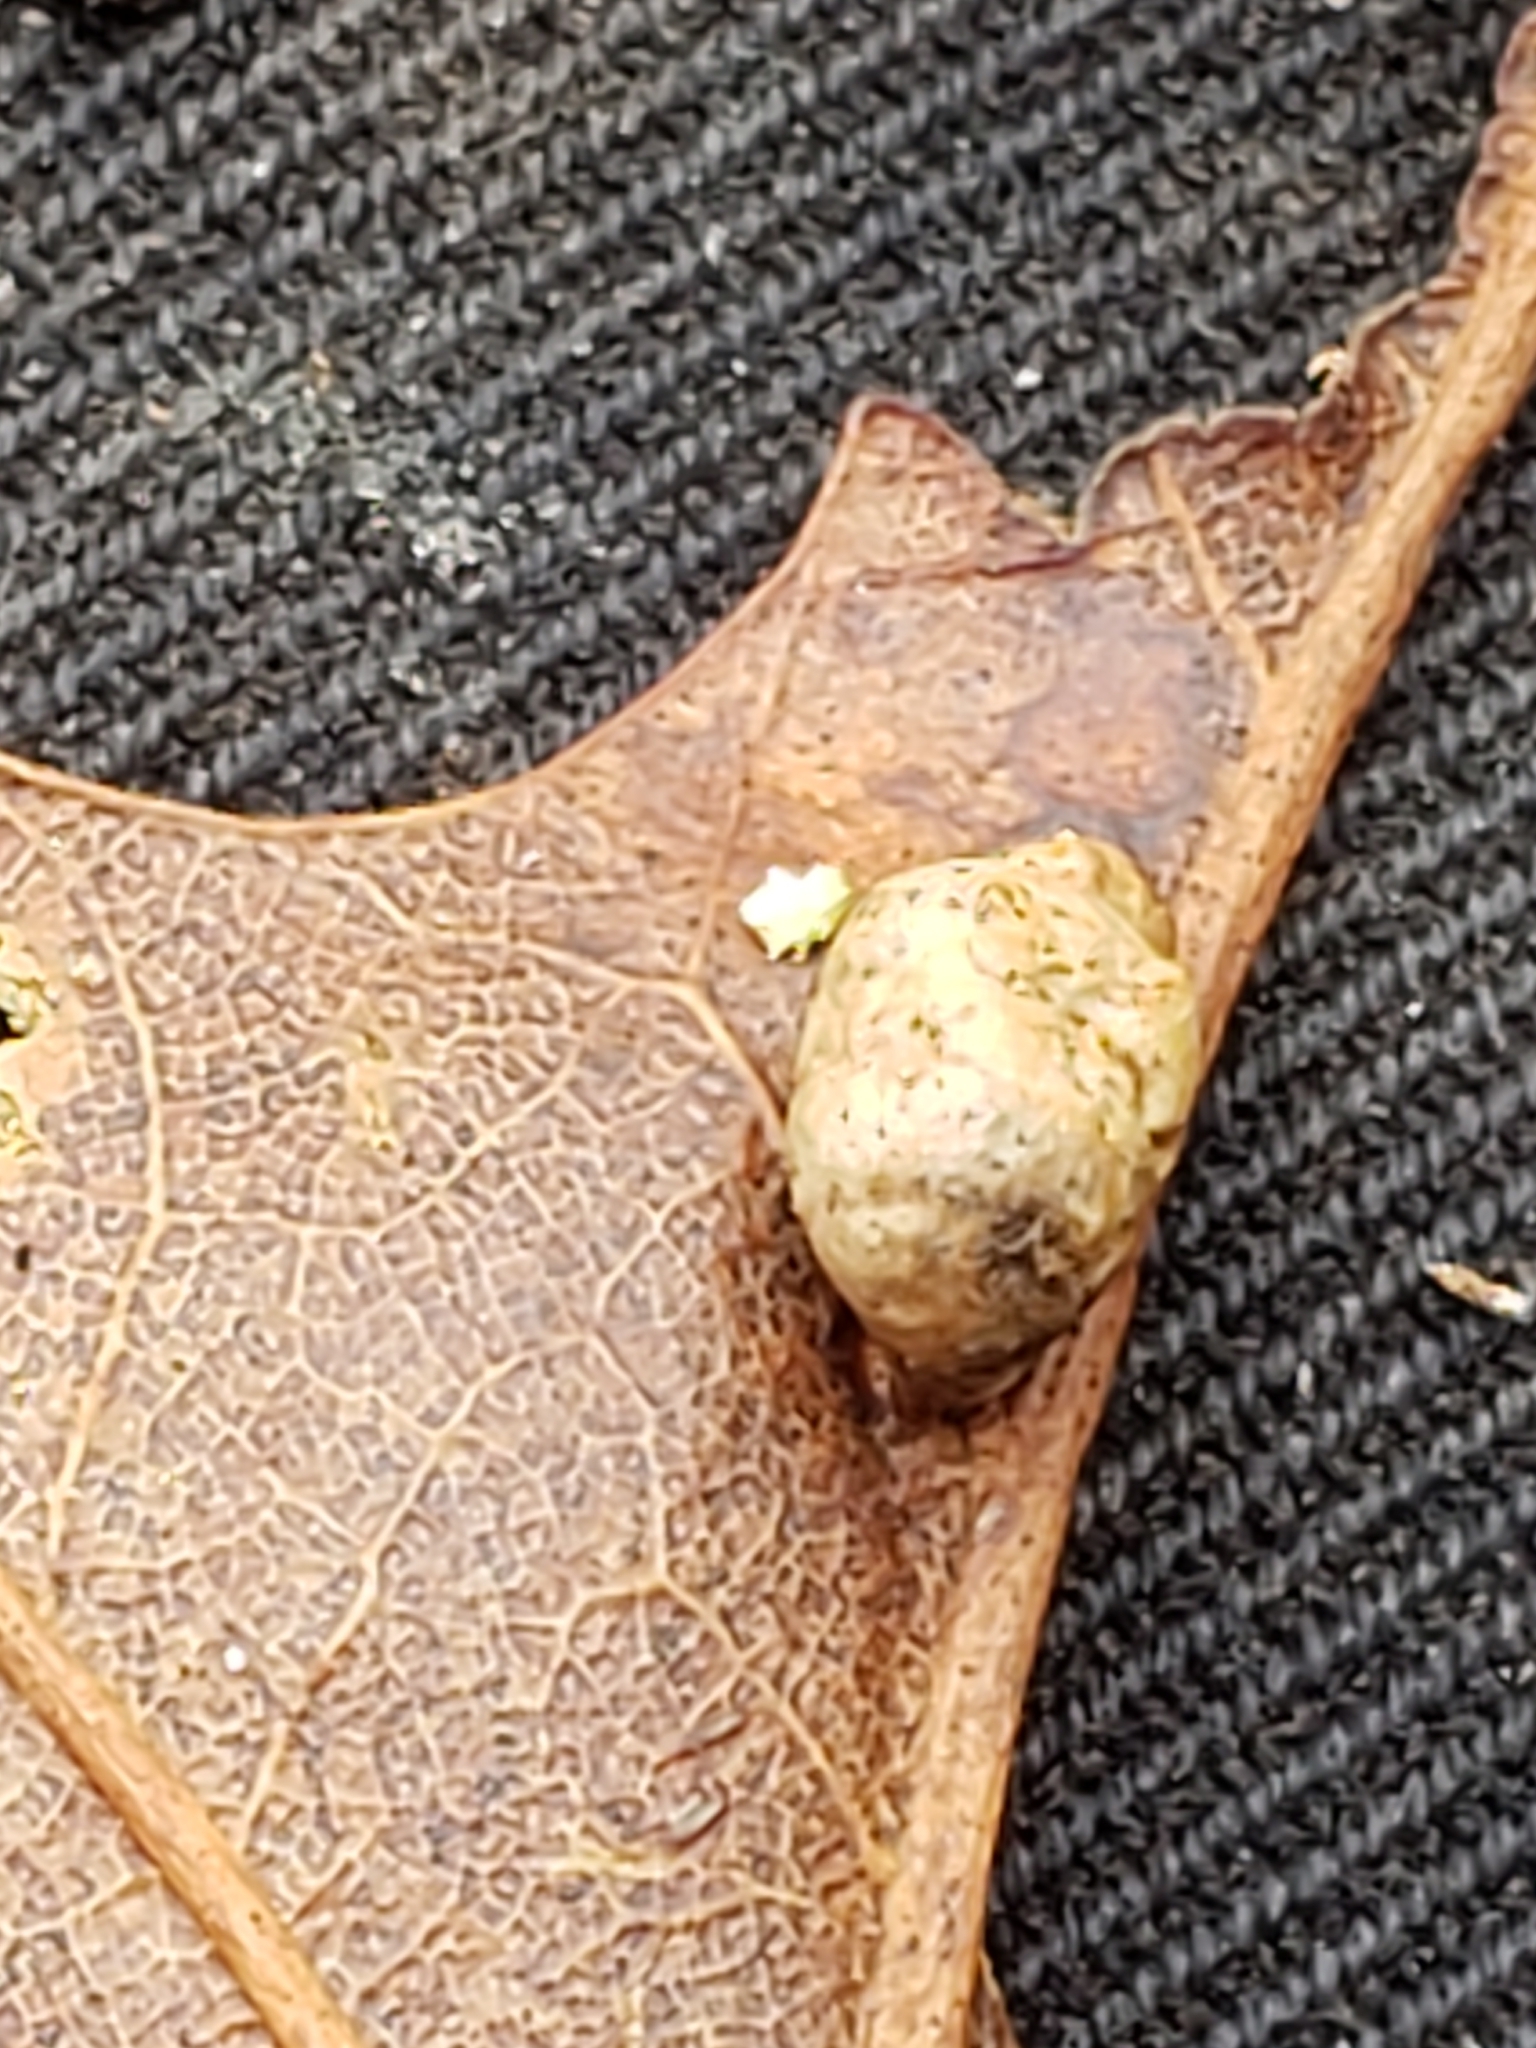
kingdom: Animalia
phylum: Arthropoda
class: Insecta
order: Diptera
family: Cecidomyiidae
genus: Macrodiplosis
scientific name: Macrodiplosis majalis
